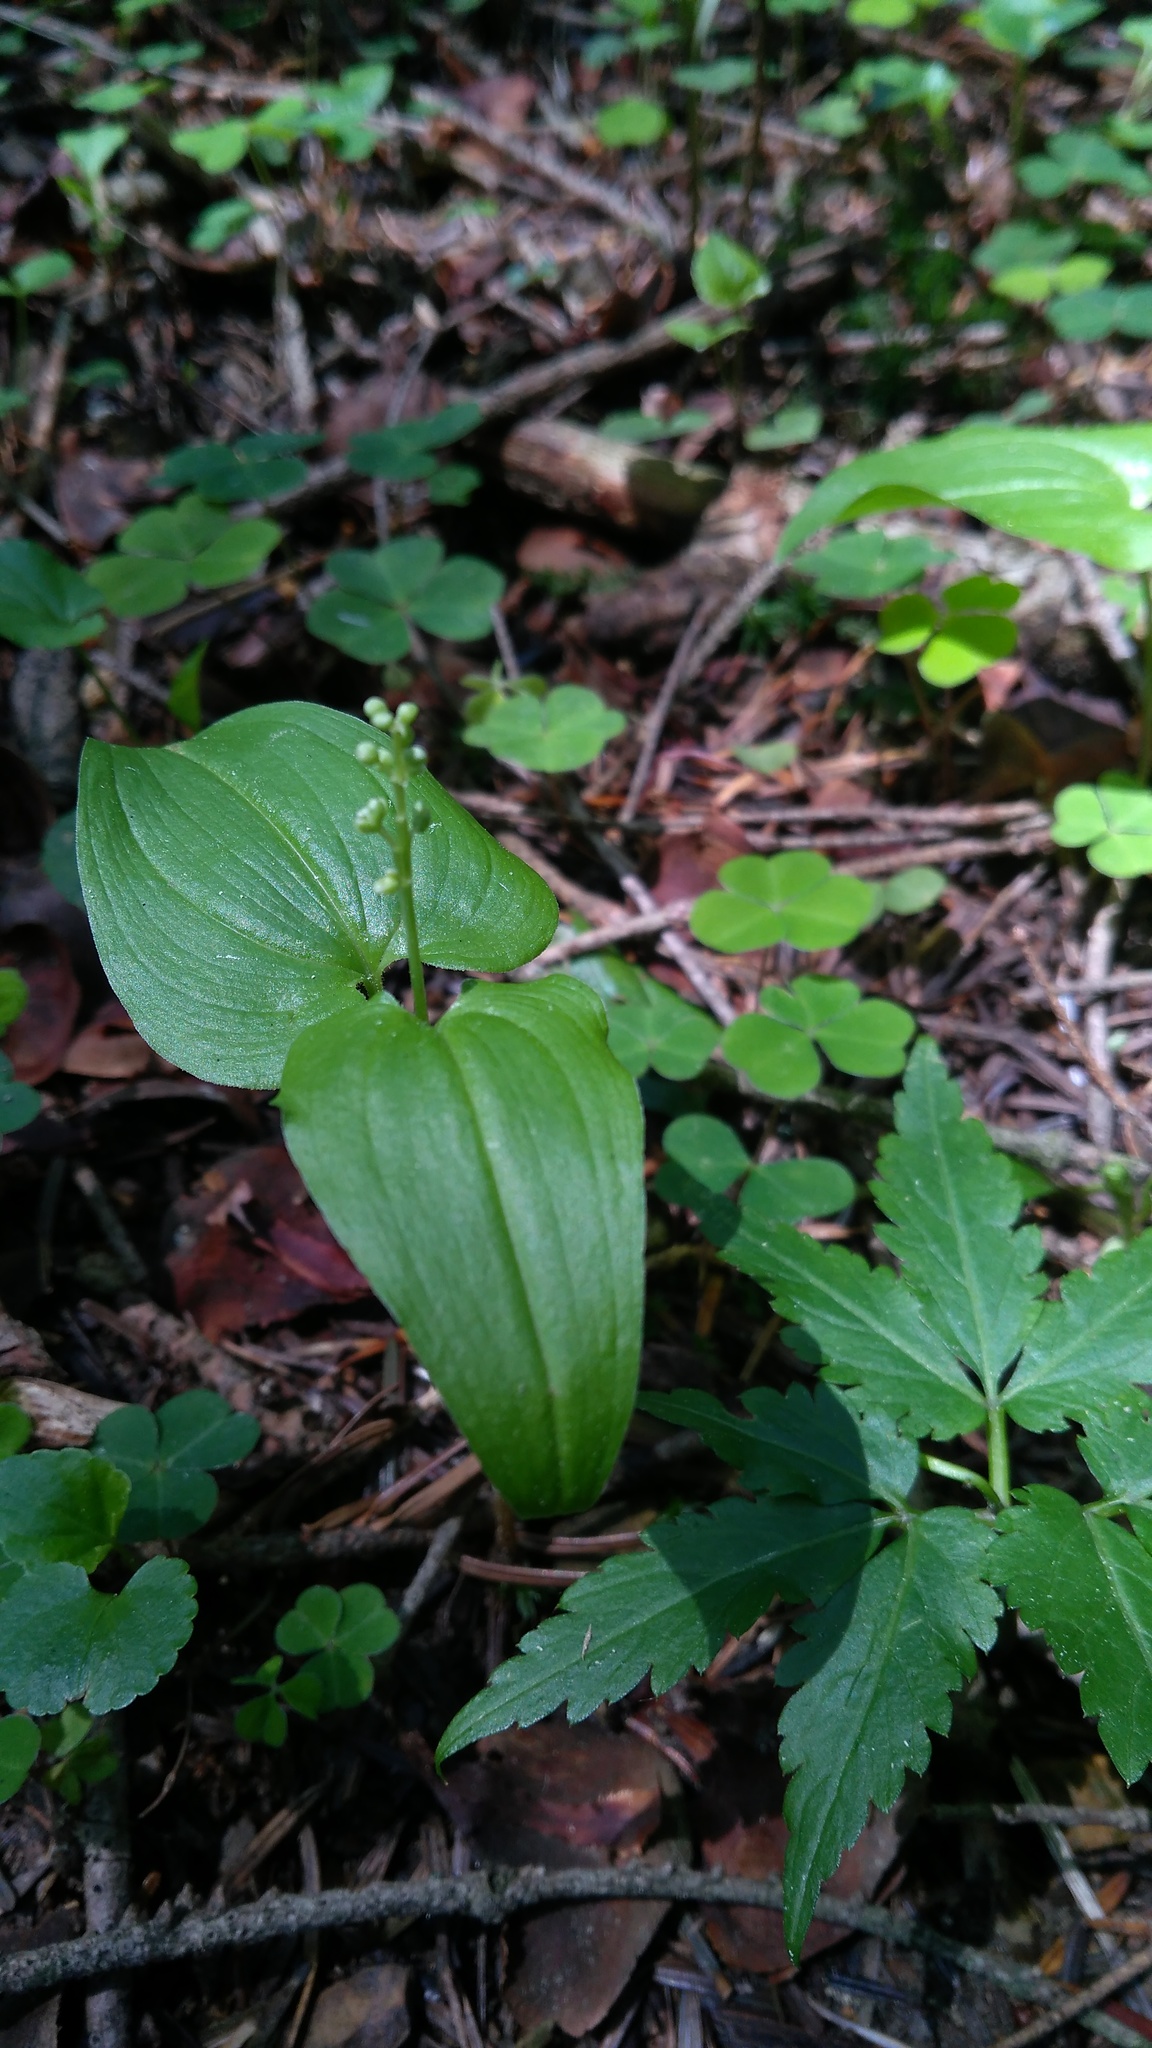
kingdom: Plantae
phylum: Tracheophyta
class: Liliopsida
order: Asparagales
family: Asparagaceae
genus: Maianthemum
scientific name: Maianthemum bifolium
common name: May lily
